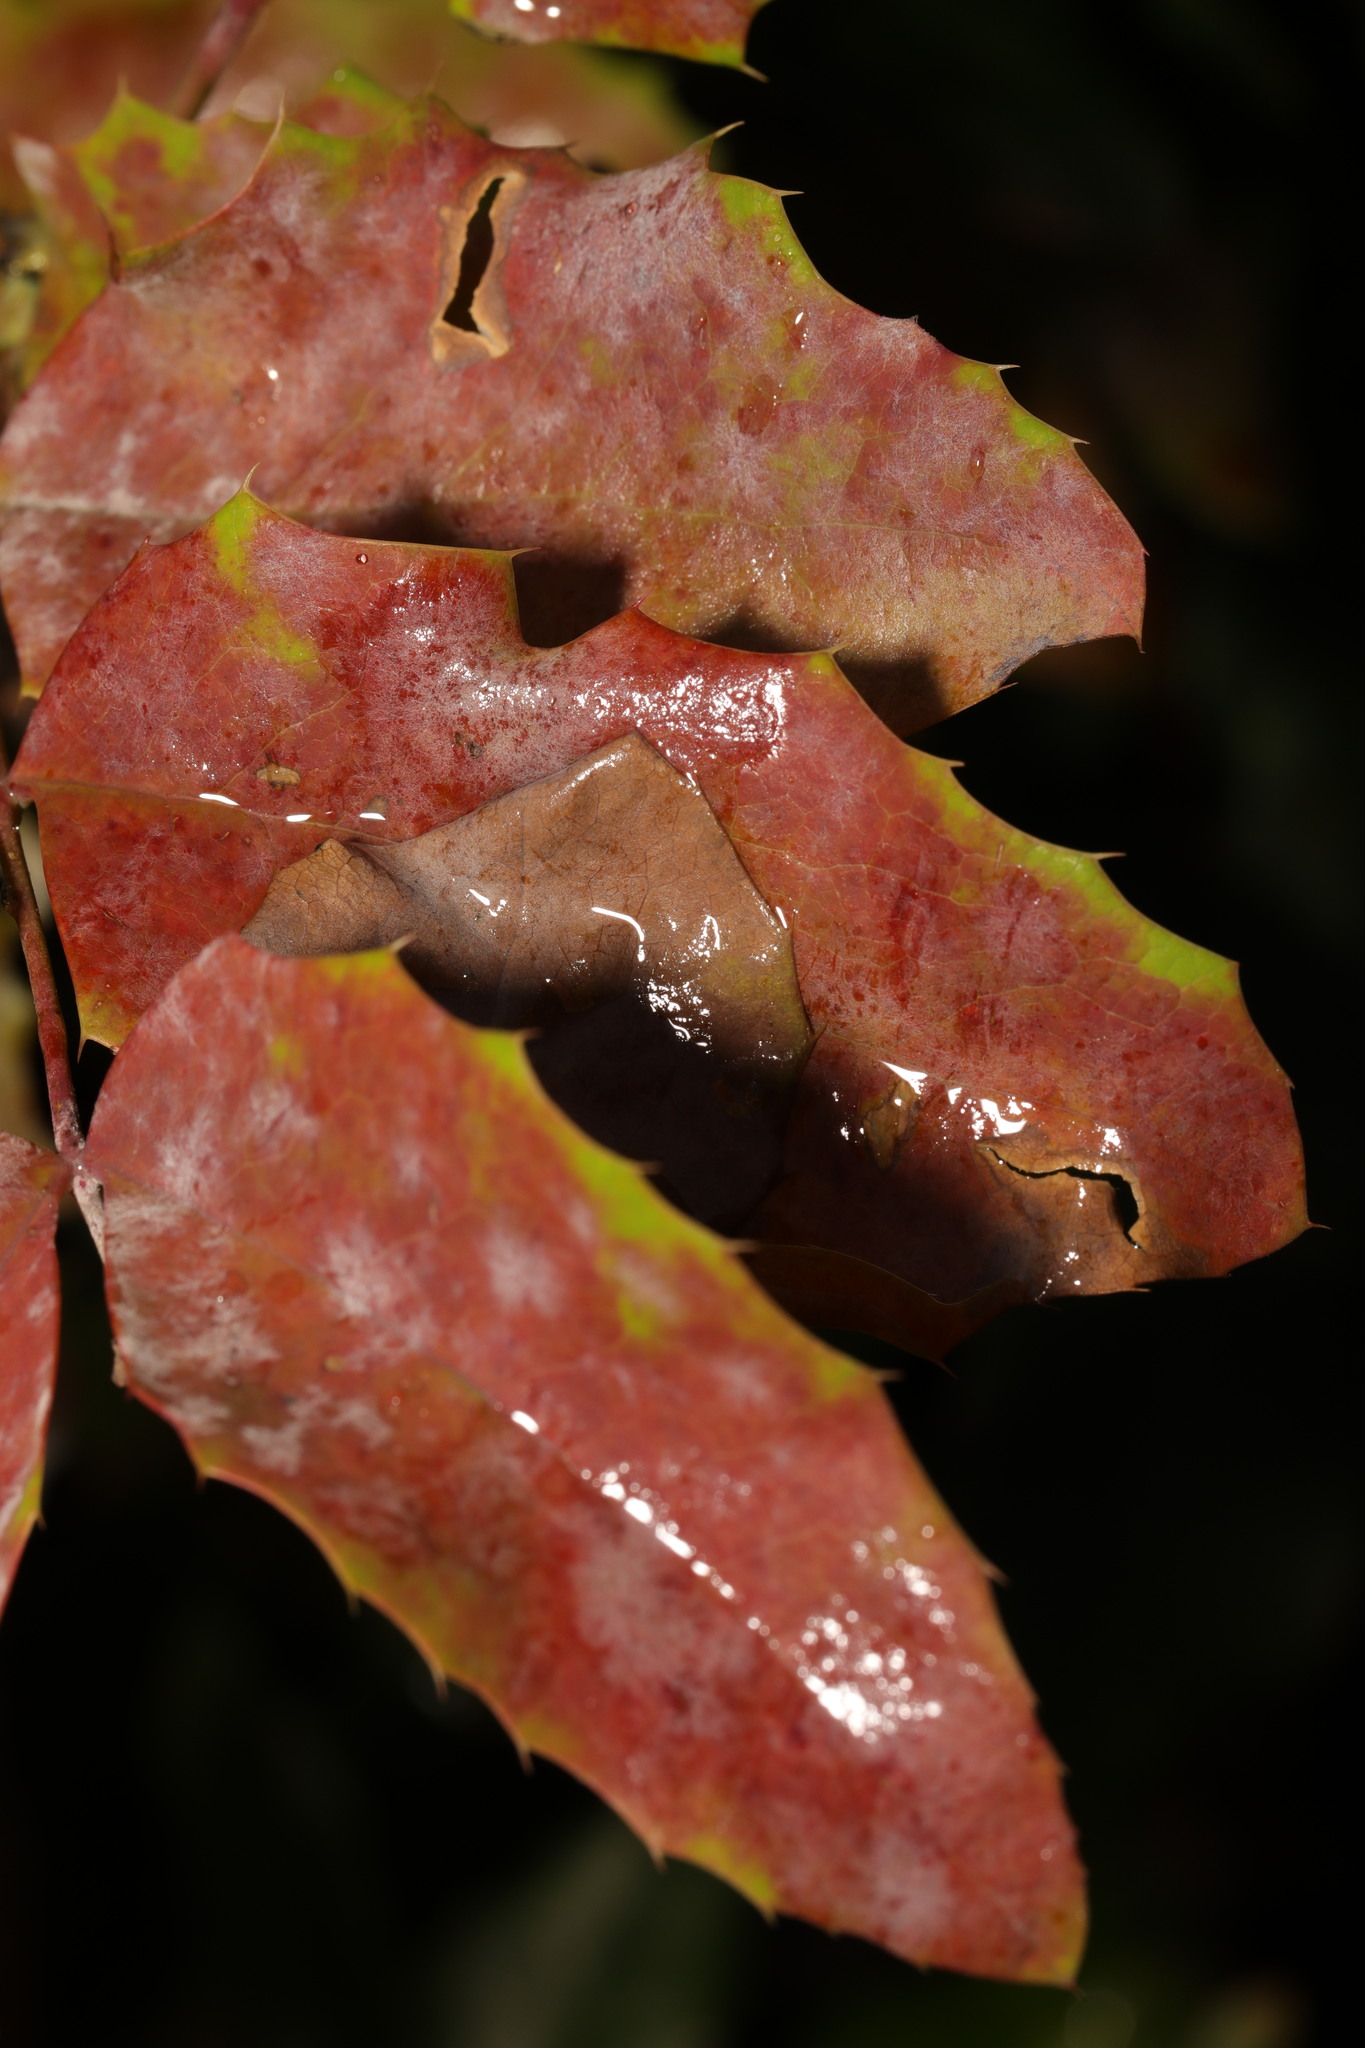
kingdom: Fungi
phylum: Ascomycota
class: Leotiomycetes
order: Helotiales
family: Erysiphaceae
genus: Erysiphe
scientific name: Erysiphe berberidis
